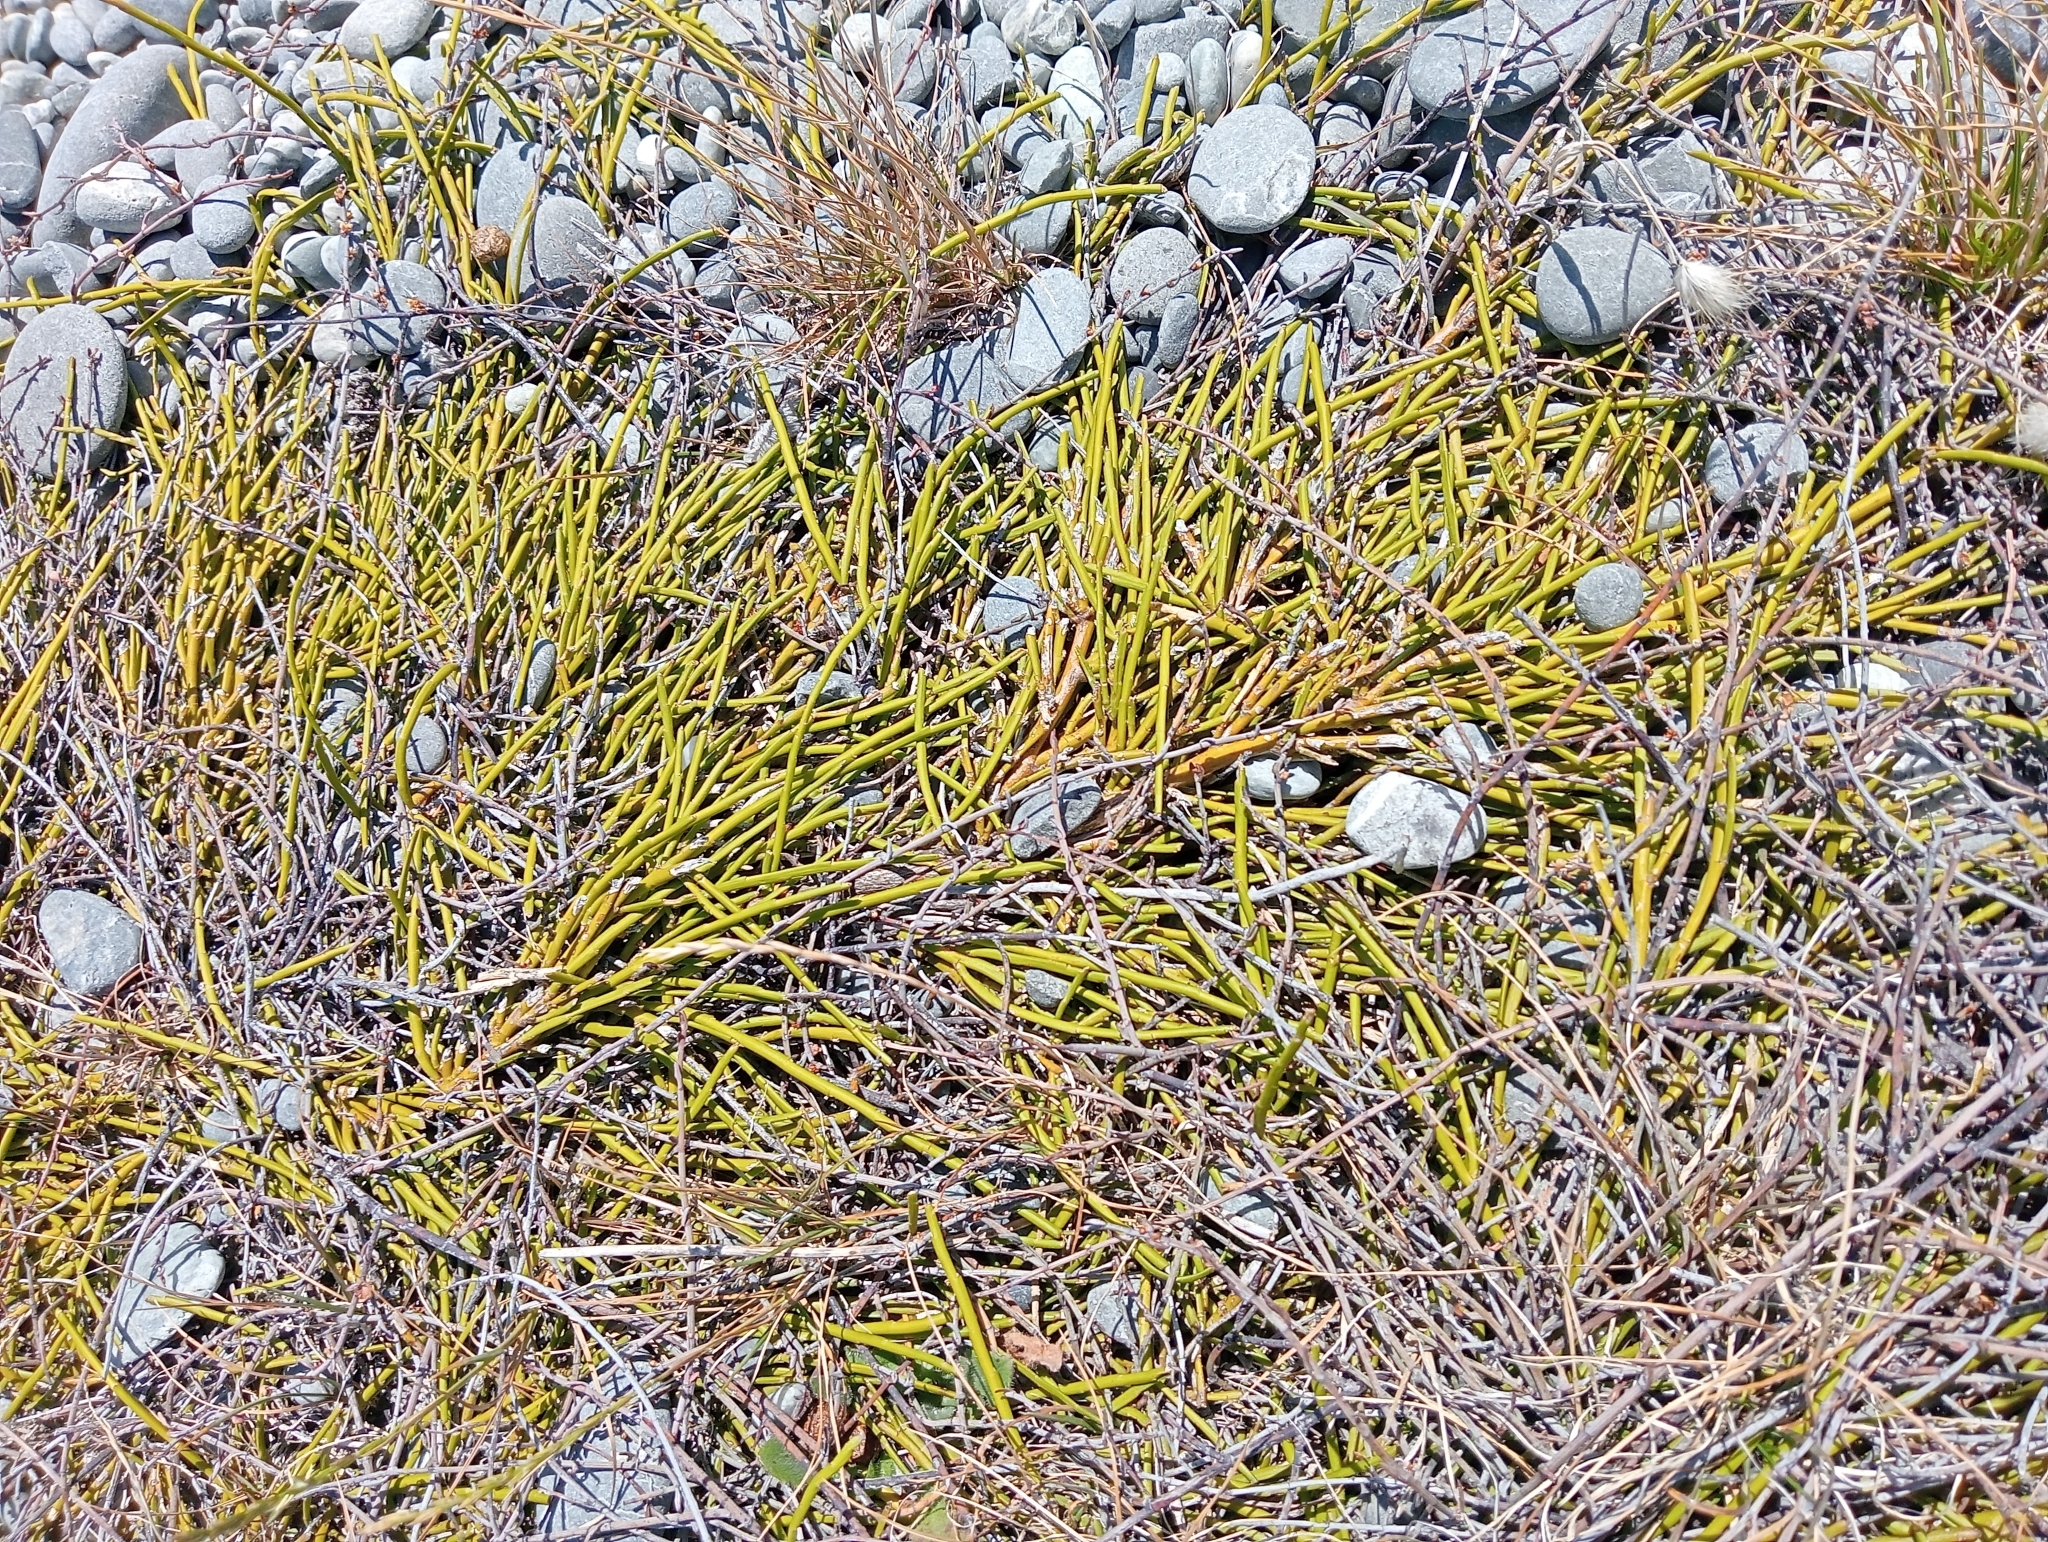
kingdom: Plantae
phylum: Tracheophyta
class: Magnoliopsida
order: Fabales
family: Fabaceae
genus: Carmichaelia
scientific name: Carmichaelia appressa
